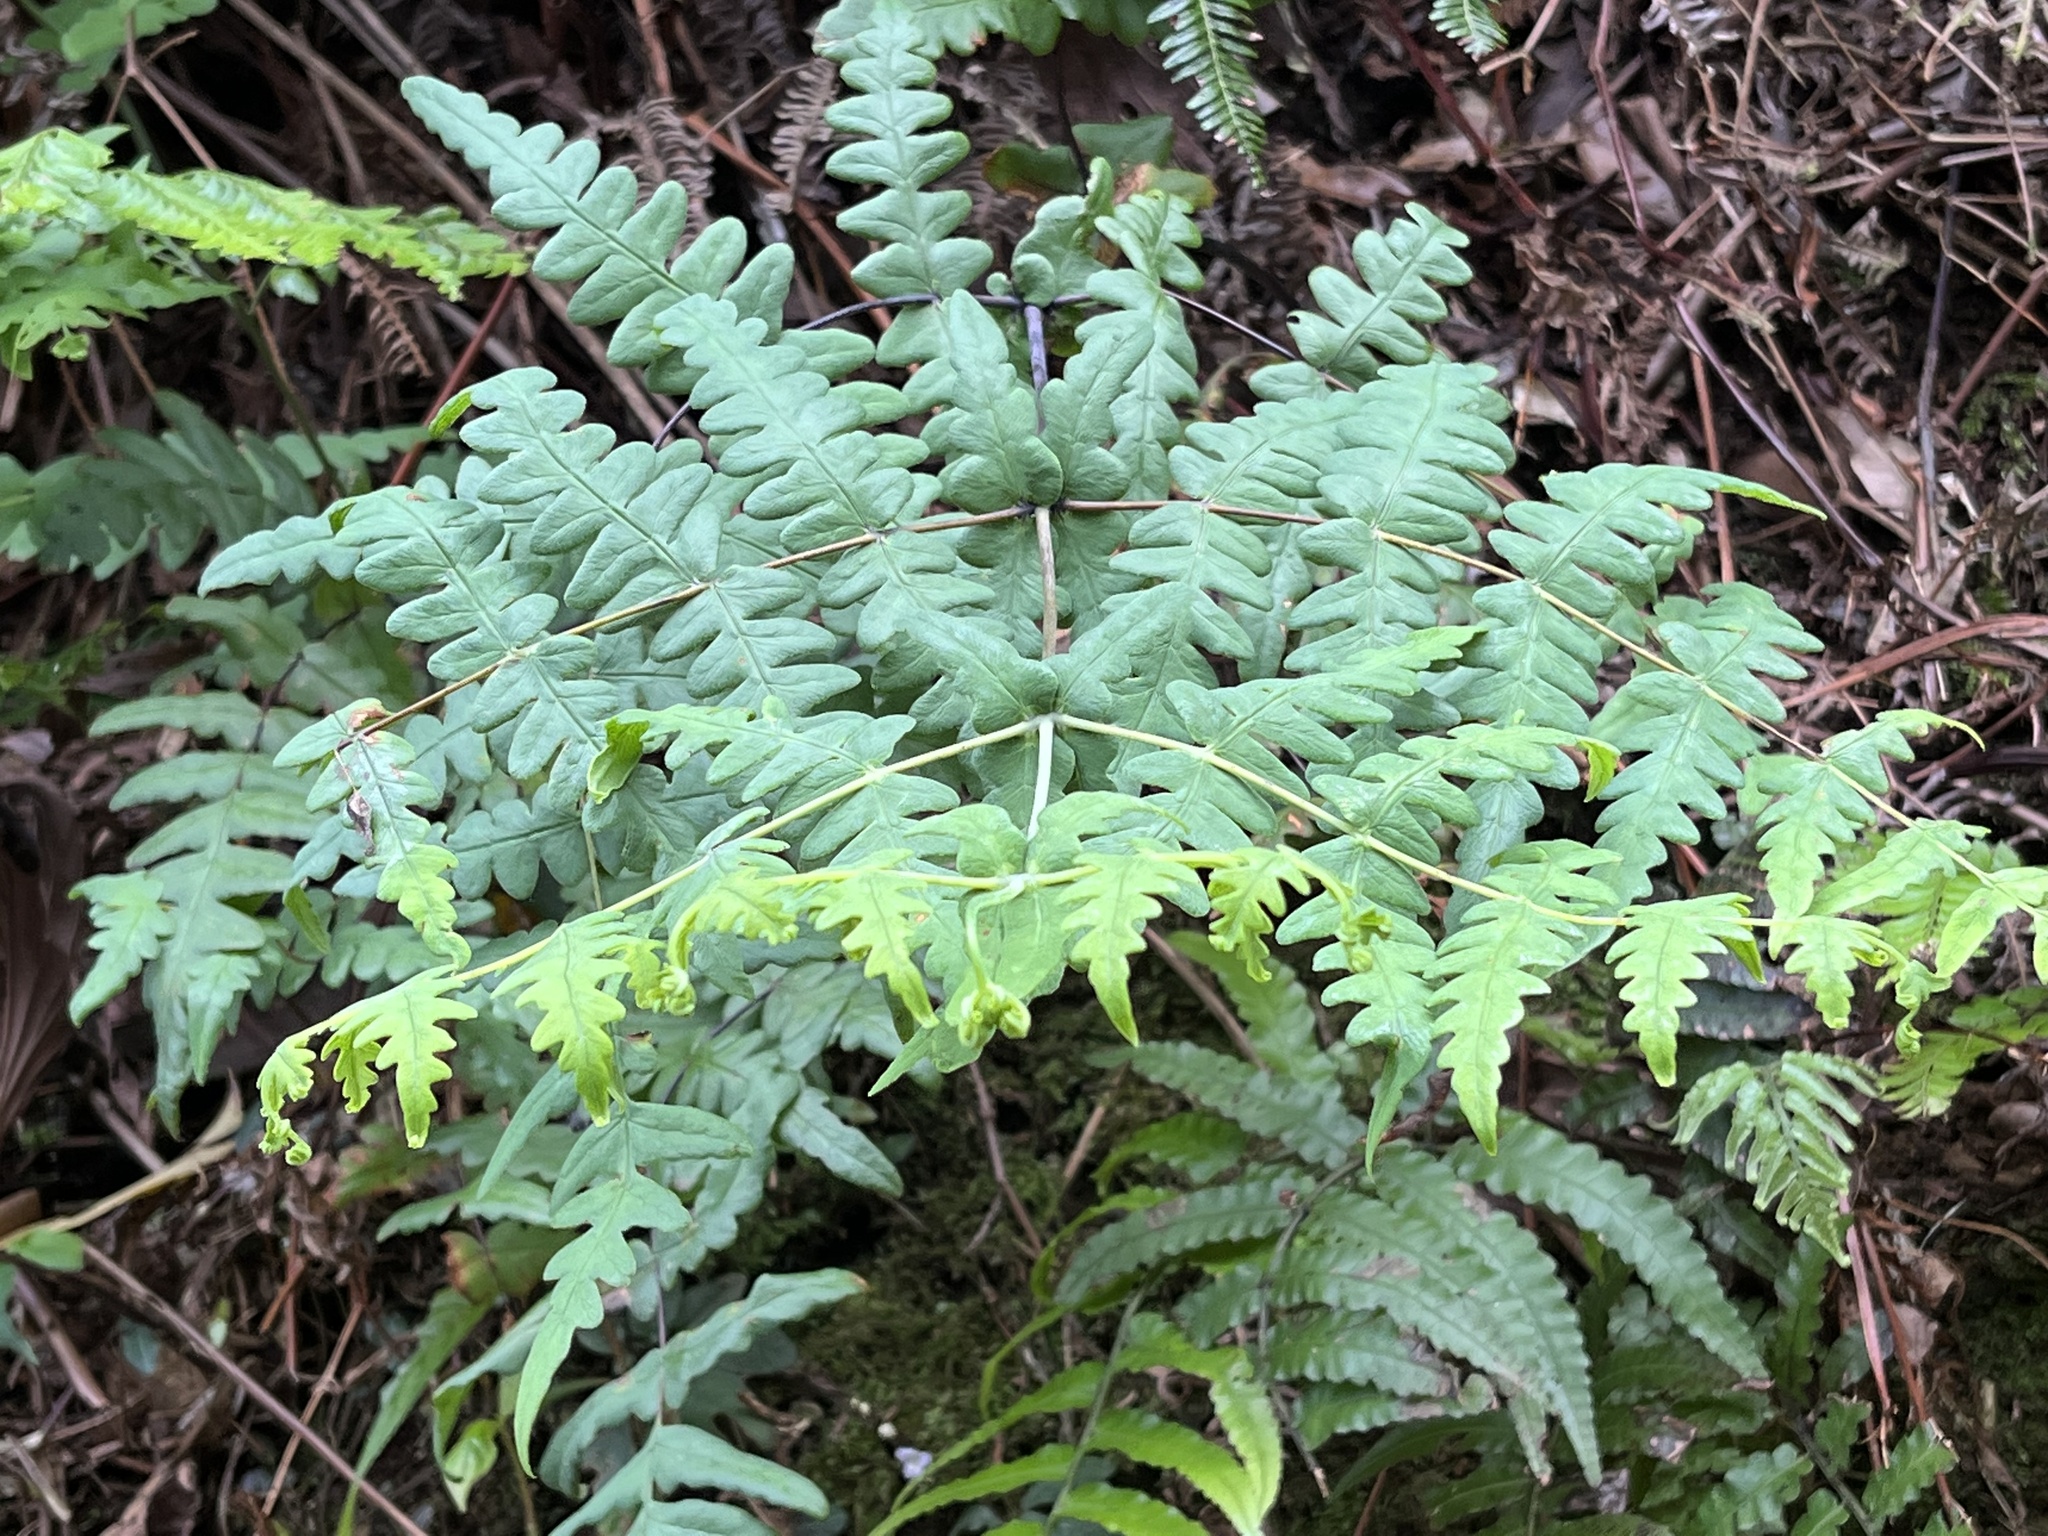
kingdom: Plantae
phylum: Tracheophyta
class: Polypodiopsida
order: Polypodiales
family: Dennstaedtiaceae
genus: Histiopteris
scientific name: Histiopteris incisa
